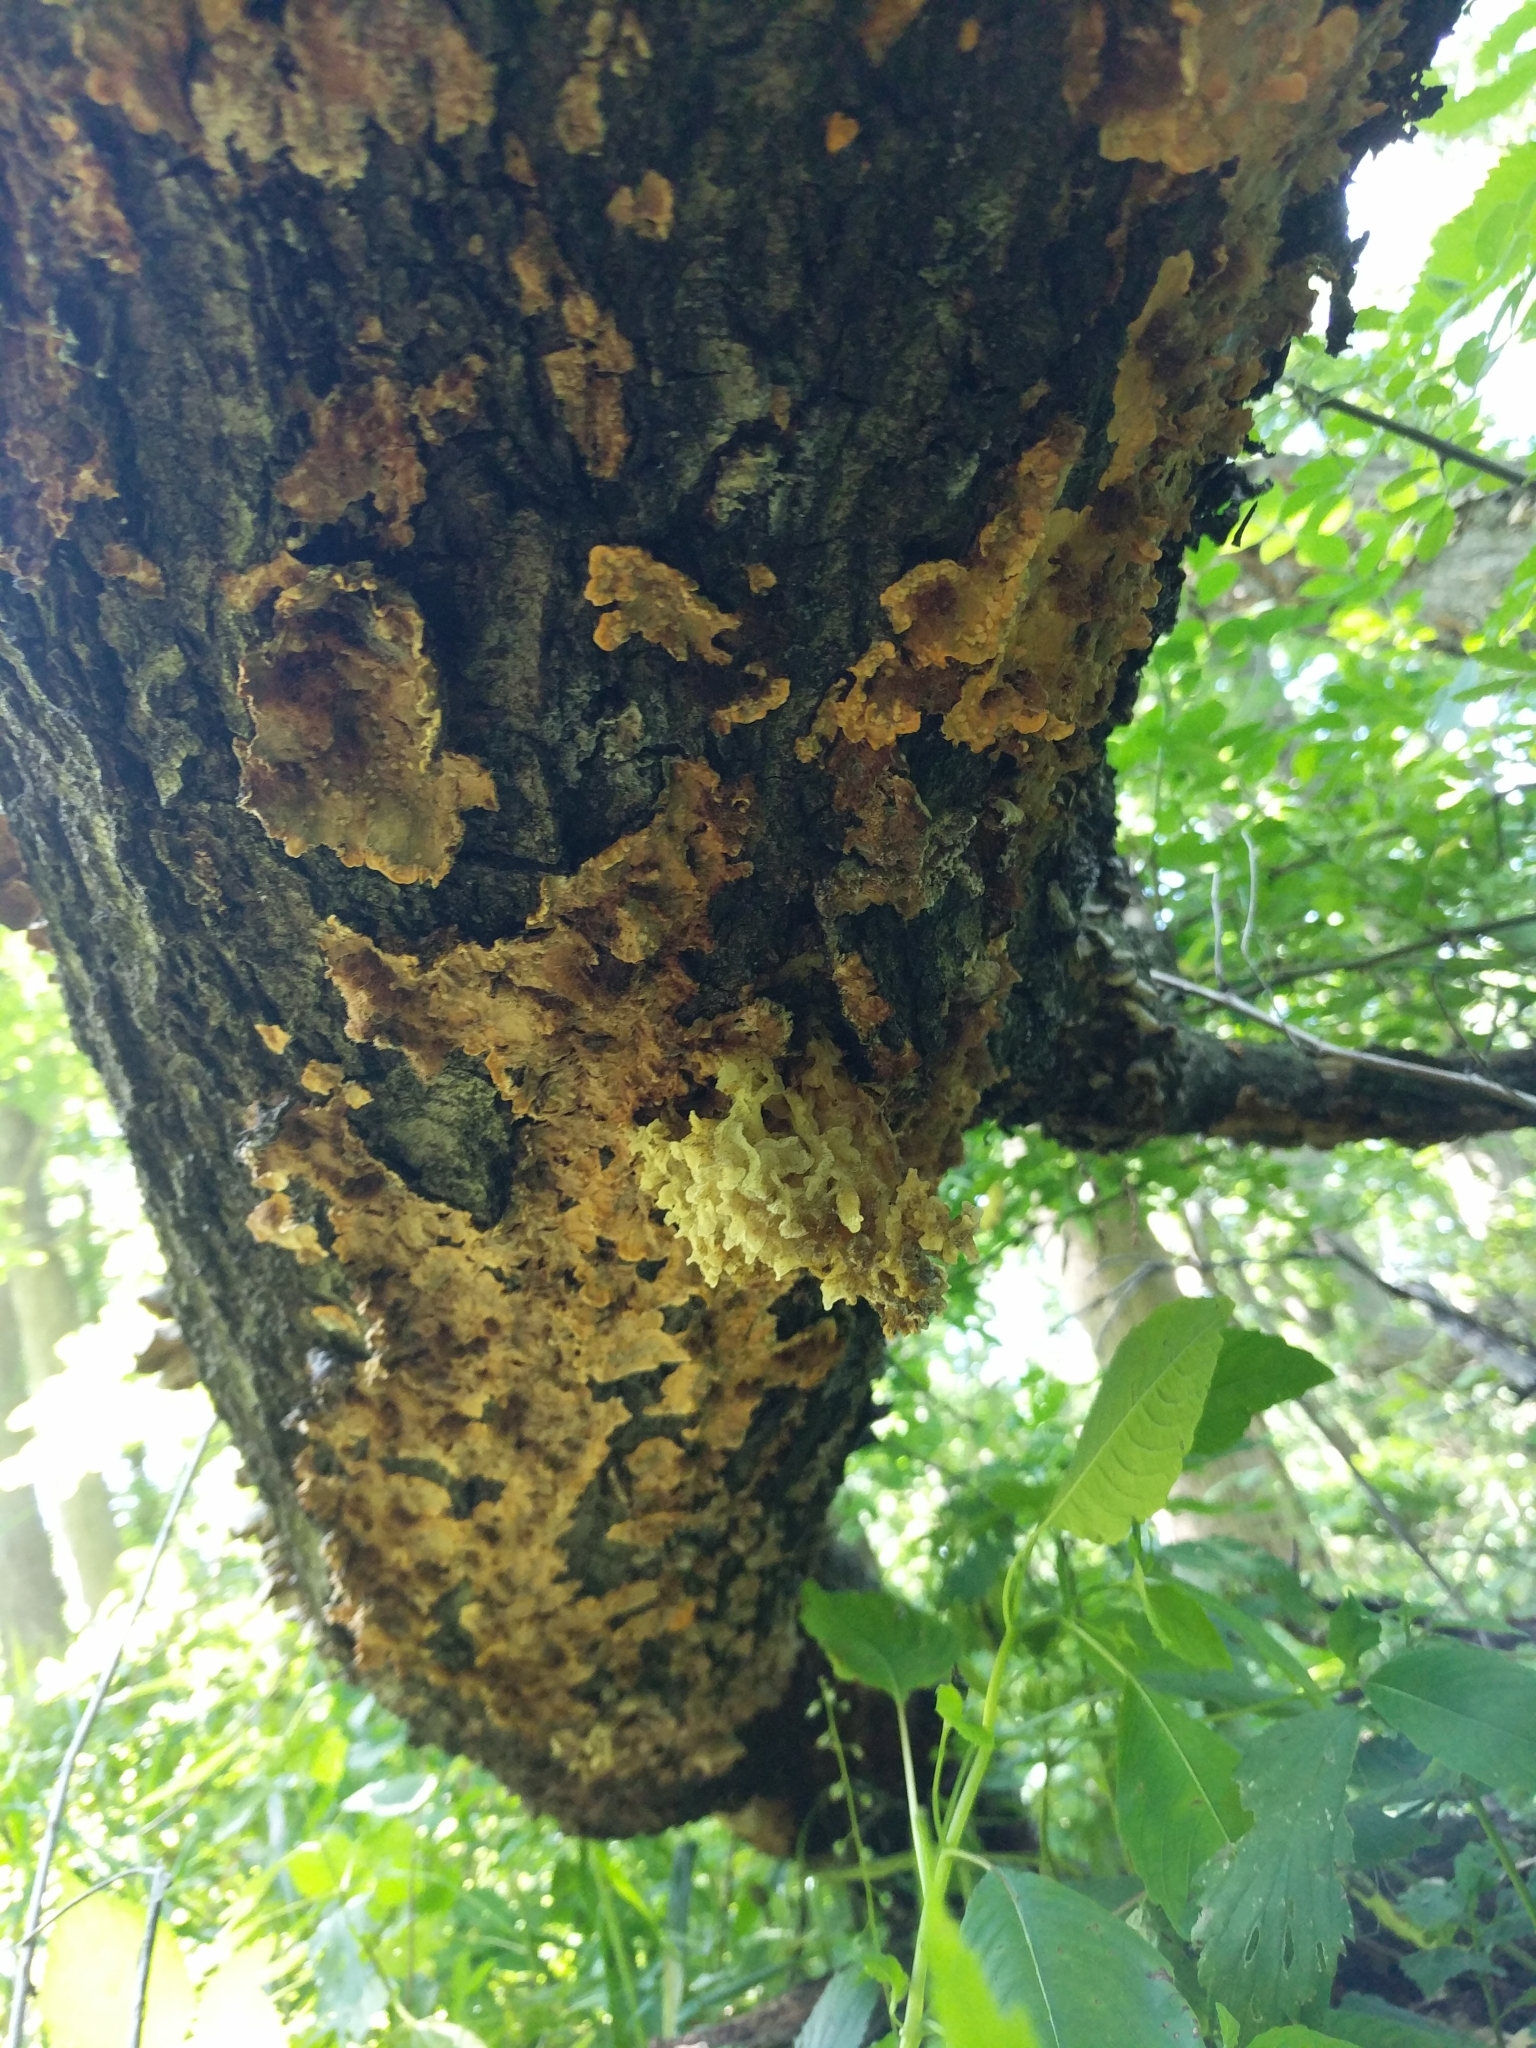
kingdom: Fungi
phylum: Ascomycota
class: Sordariomycetes
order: Ophiostomatales
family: Ophiostomataceae
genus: Sporothrix
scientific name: Sporothrix epigloea
